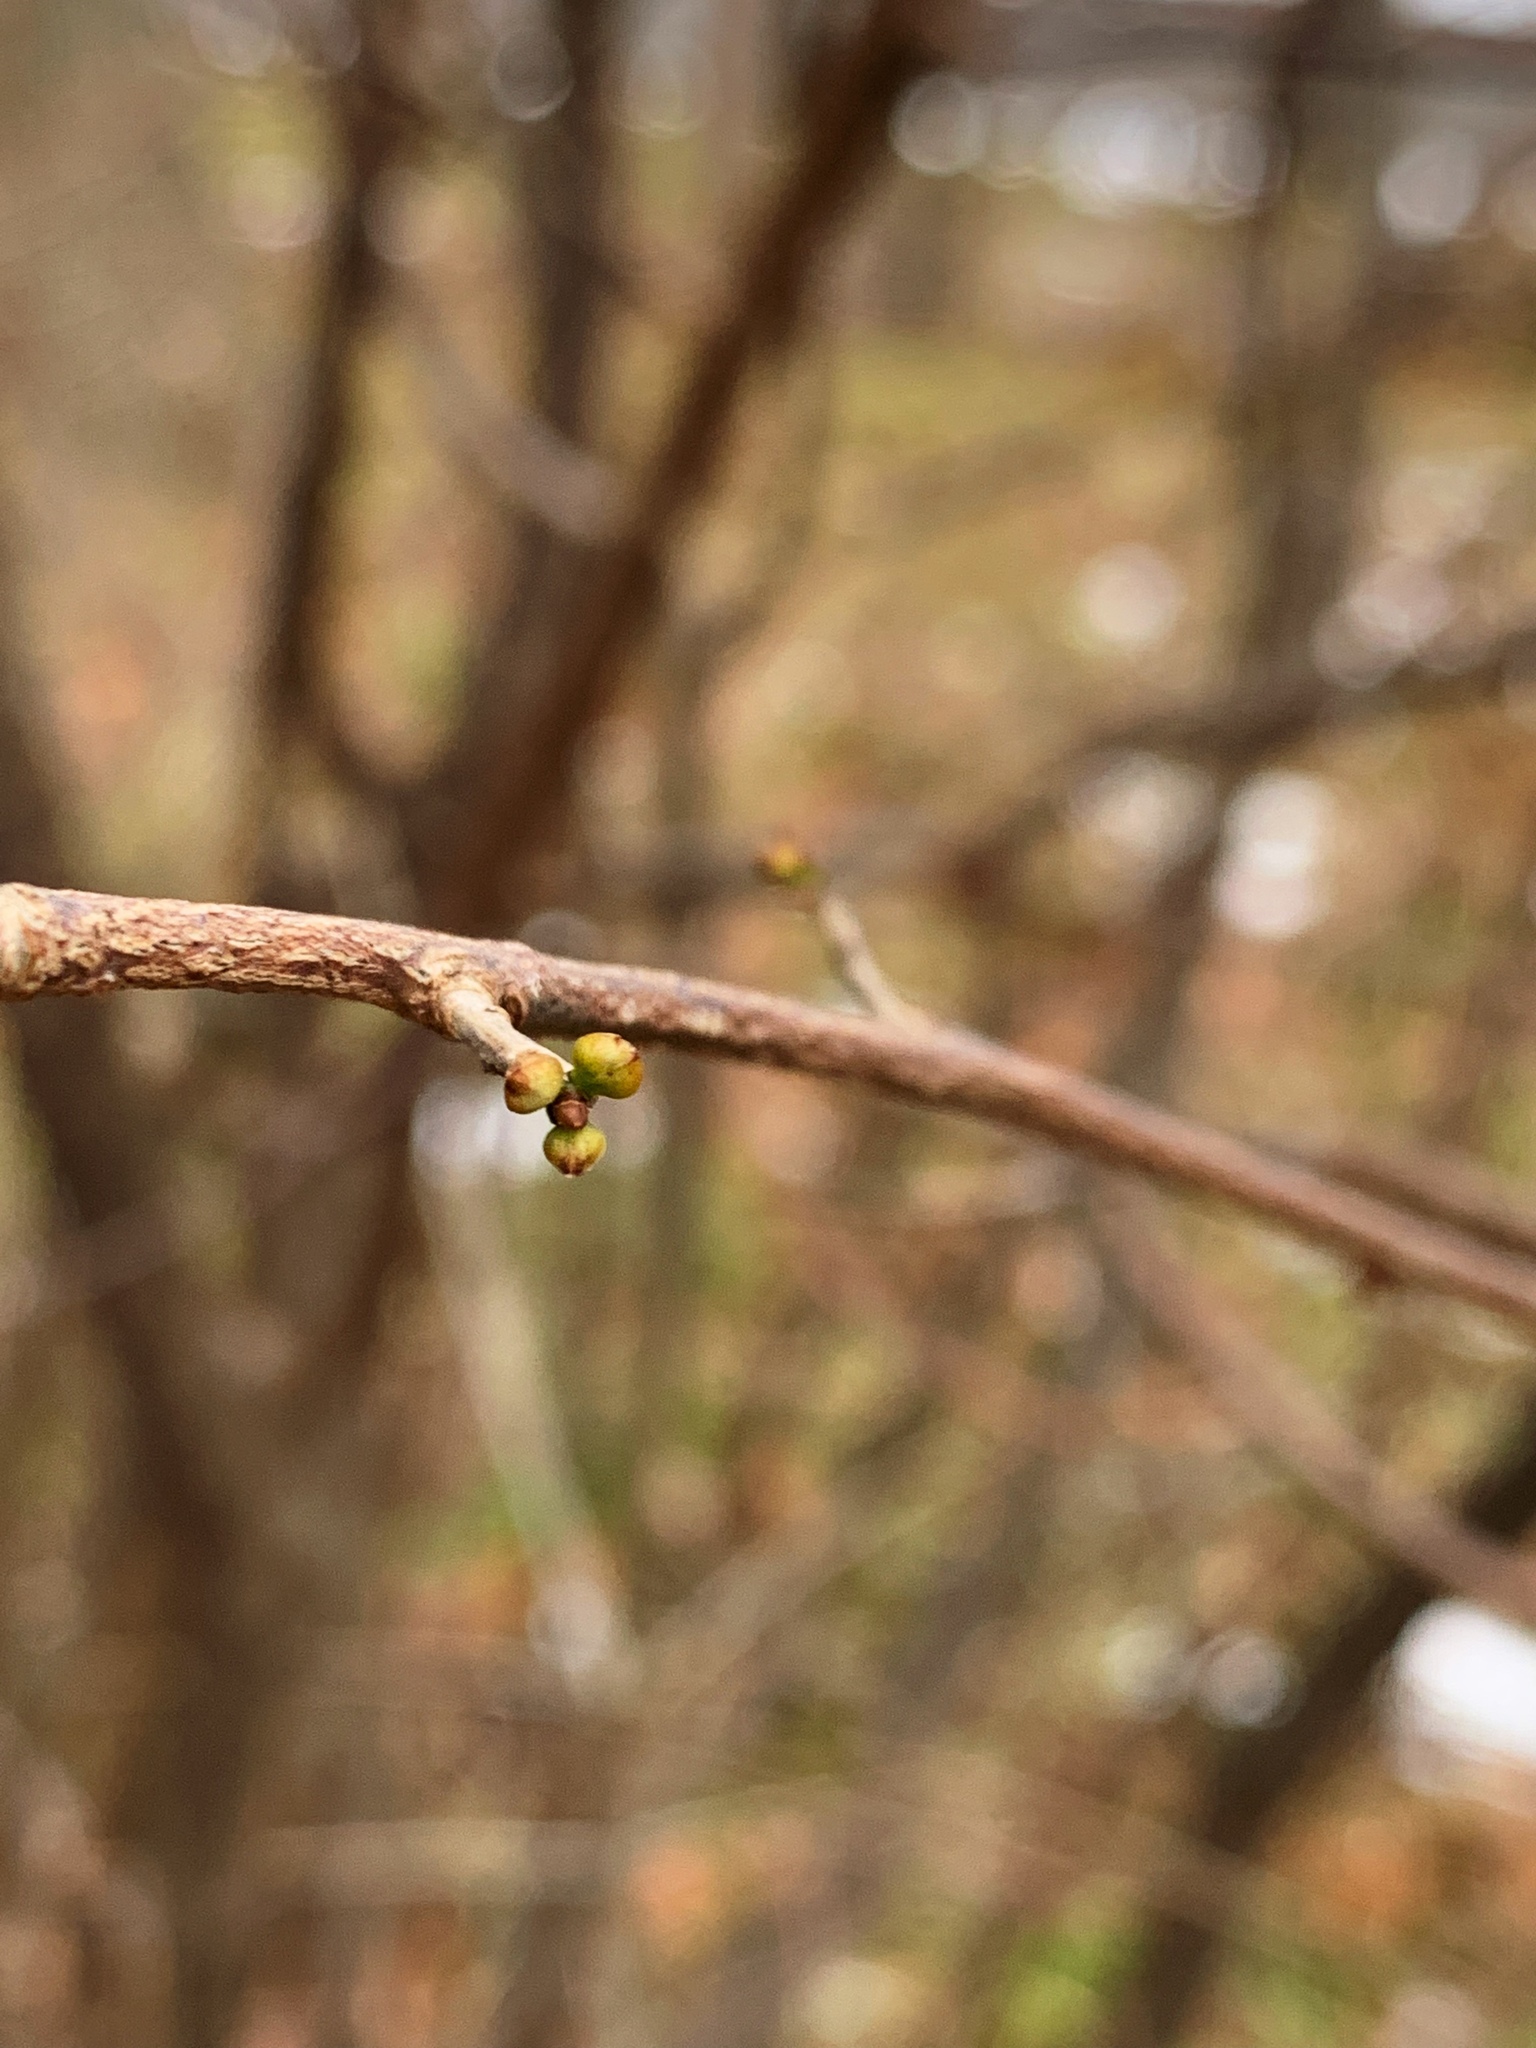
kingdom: Plantae
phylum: Tracheophyta
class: Magnoliopsida
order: Laurales
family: Lauraceae
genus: Lindera
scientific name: Lindera benzoin
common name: Spicebush
